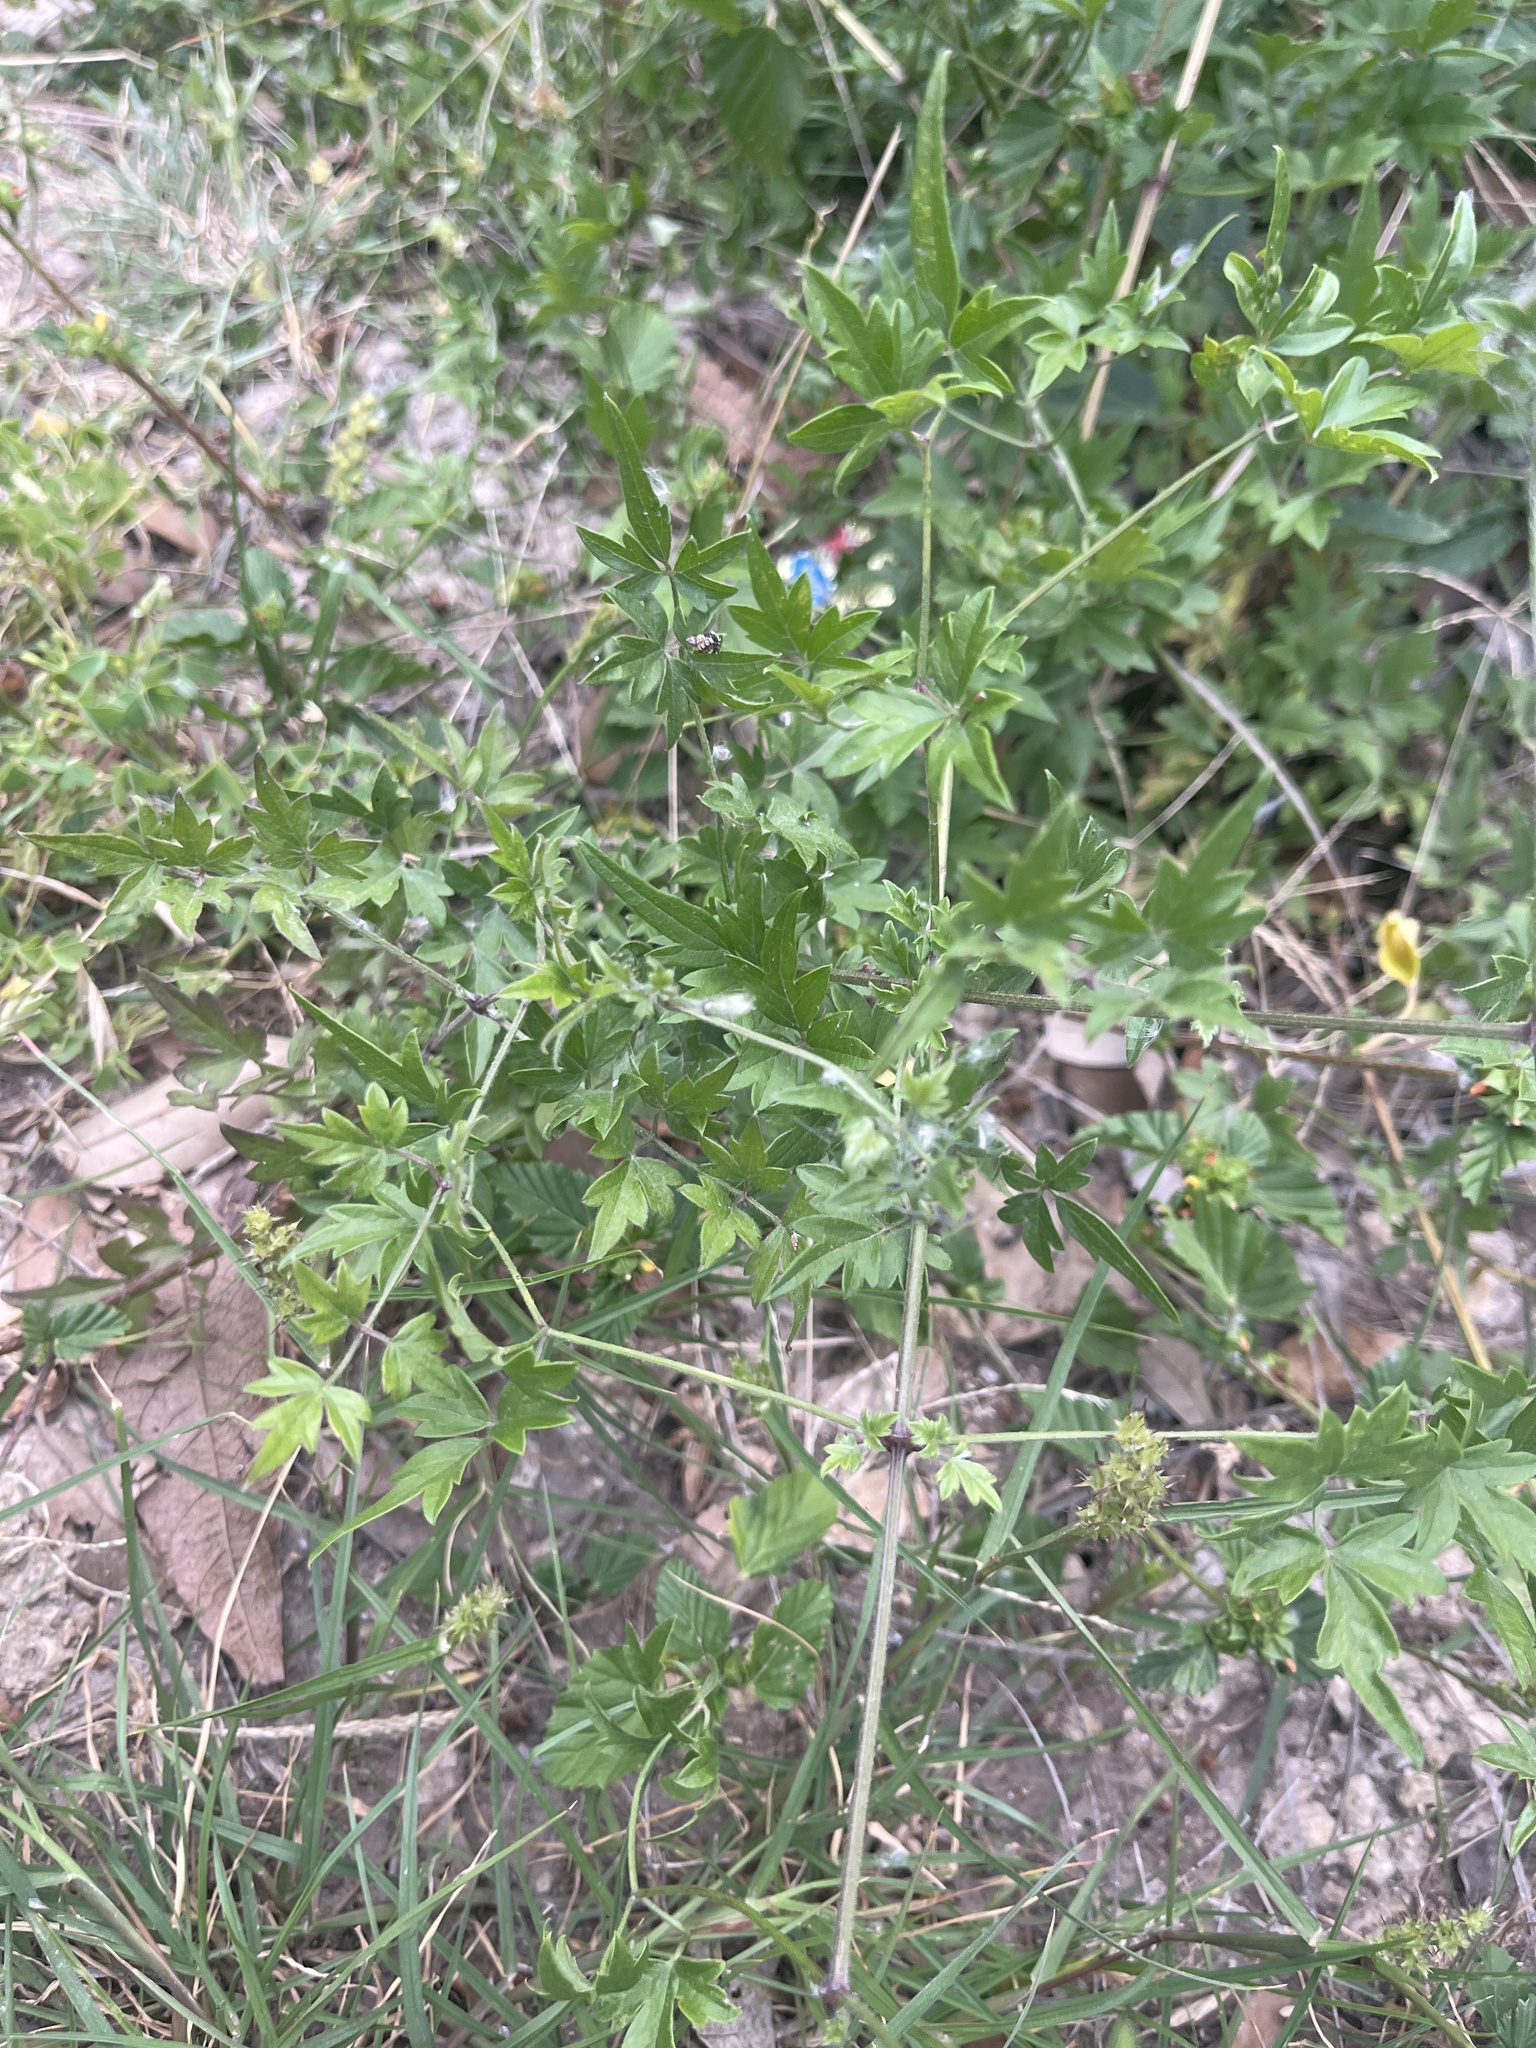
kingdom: Plantae
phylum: Tracheophyta
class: Magnoliopsida
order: Ranunculales
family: Ranunculaceae
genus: Clematis
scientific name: Clematis drummondii
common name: Texas virgin's bower
